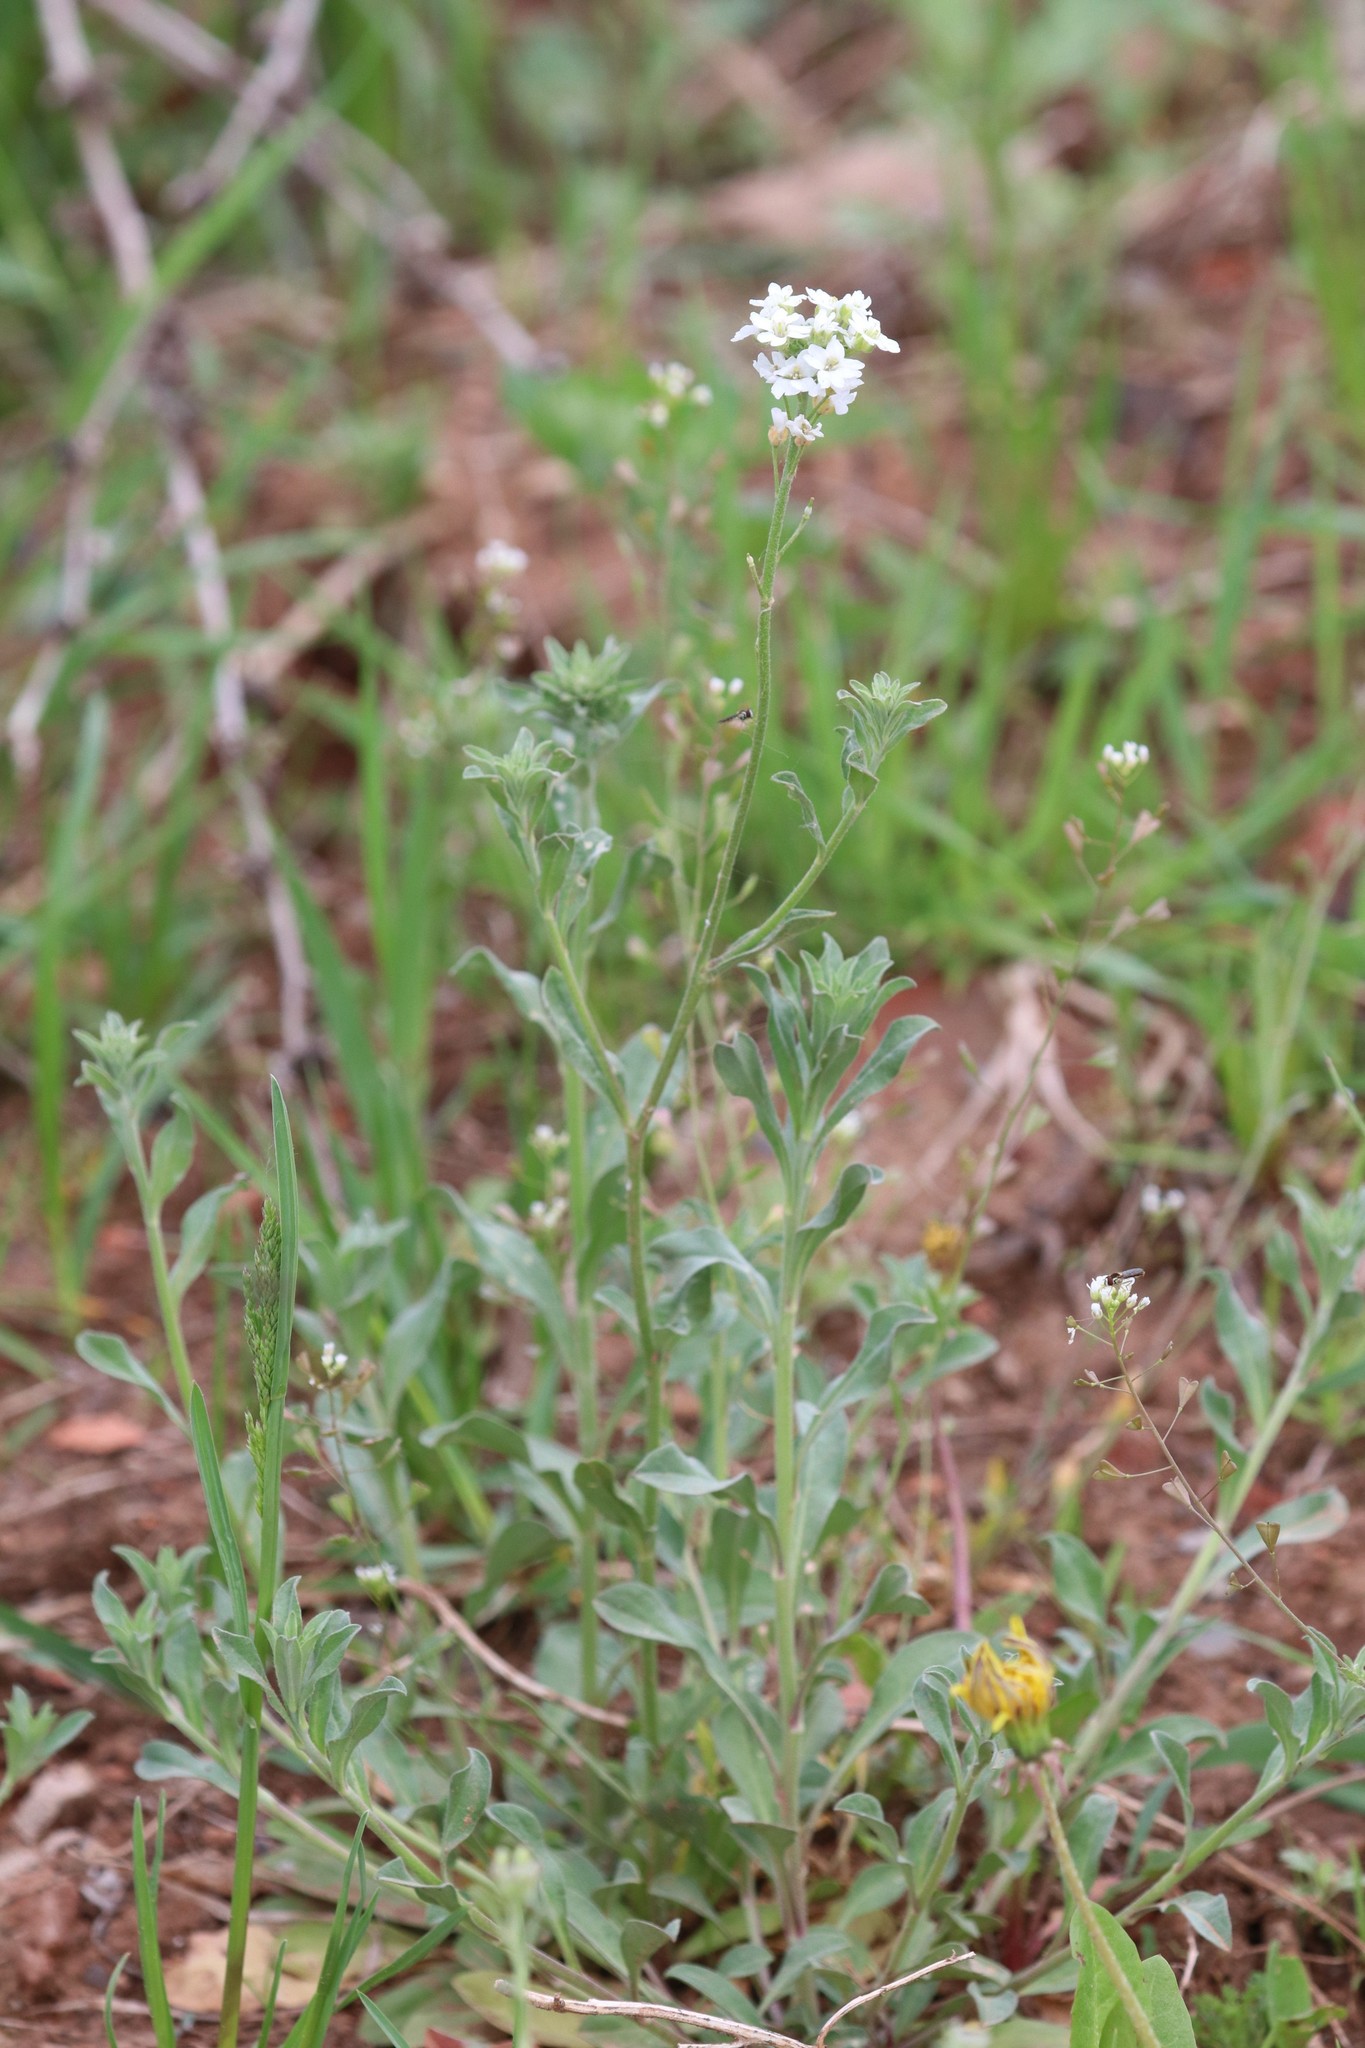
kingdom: Plantae
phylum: Tracheophyta
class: Magnoliopsida
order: Brassicales
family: Brassicaceae
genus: Berteroa
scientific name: Berteroa incana
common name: Hoary alison
